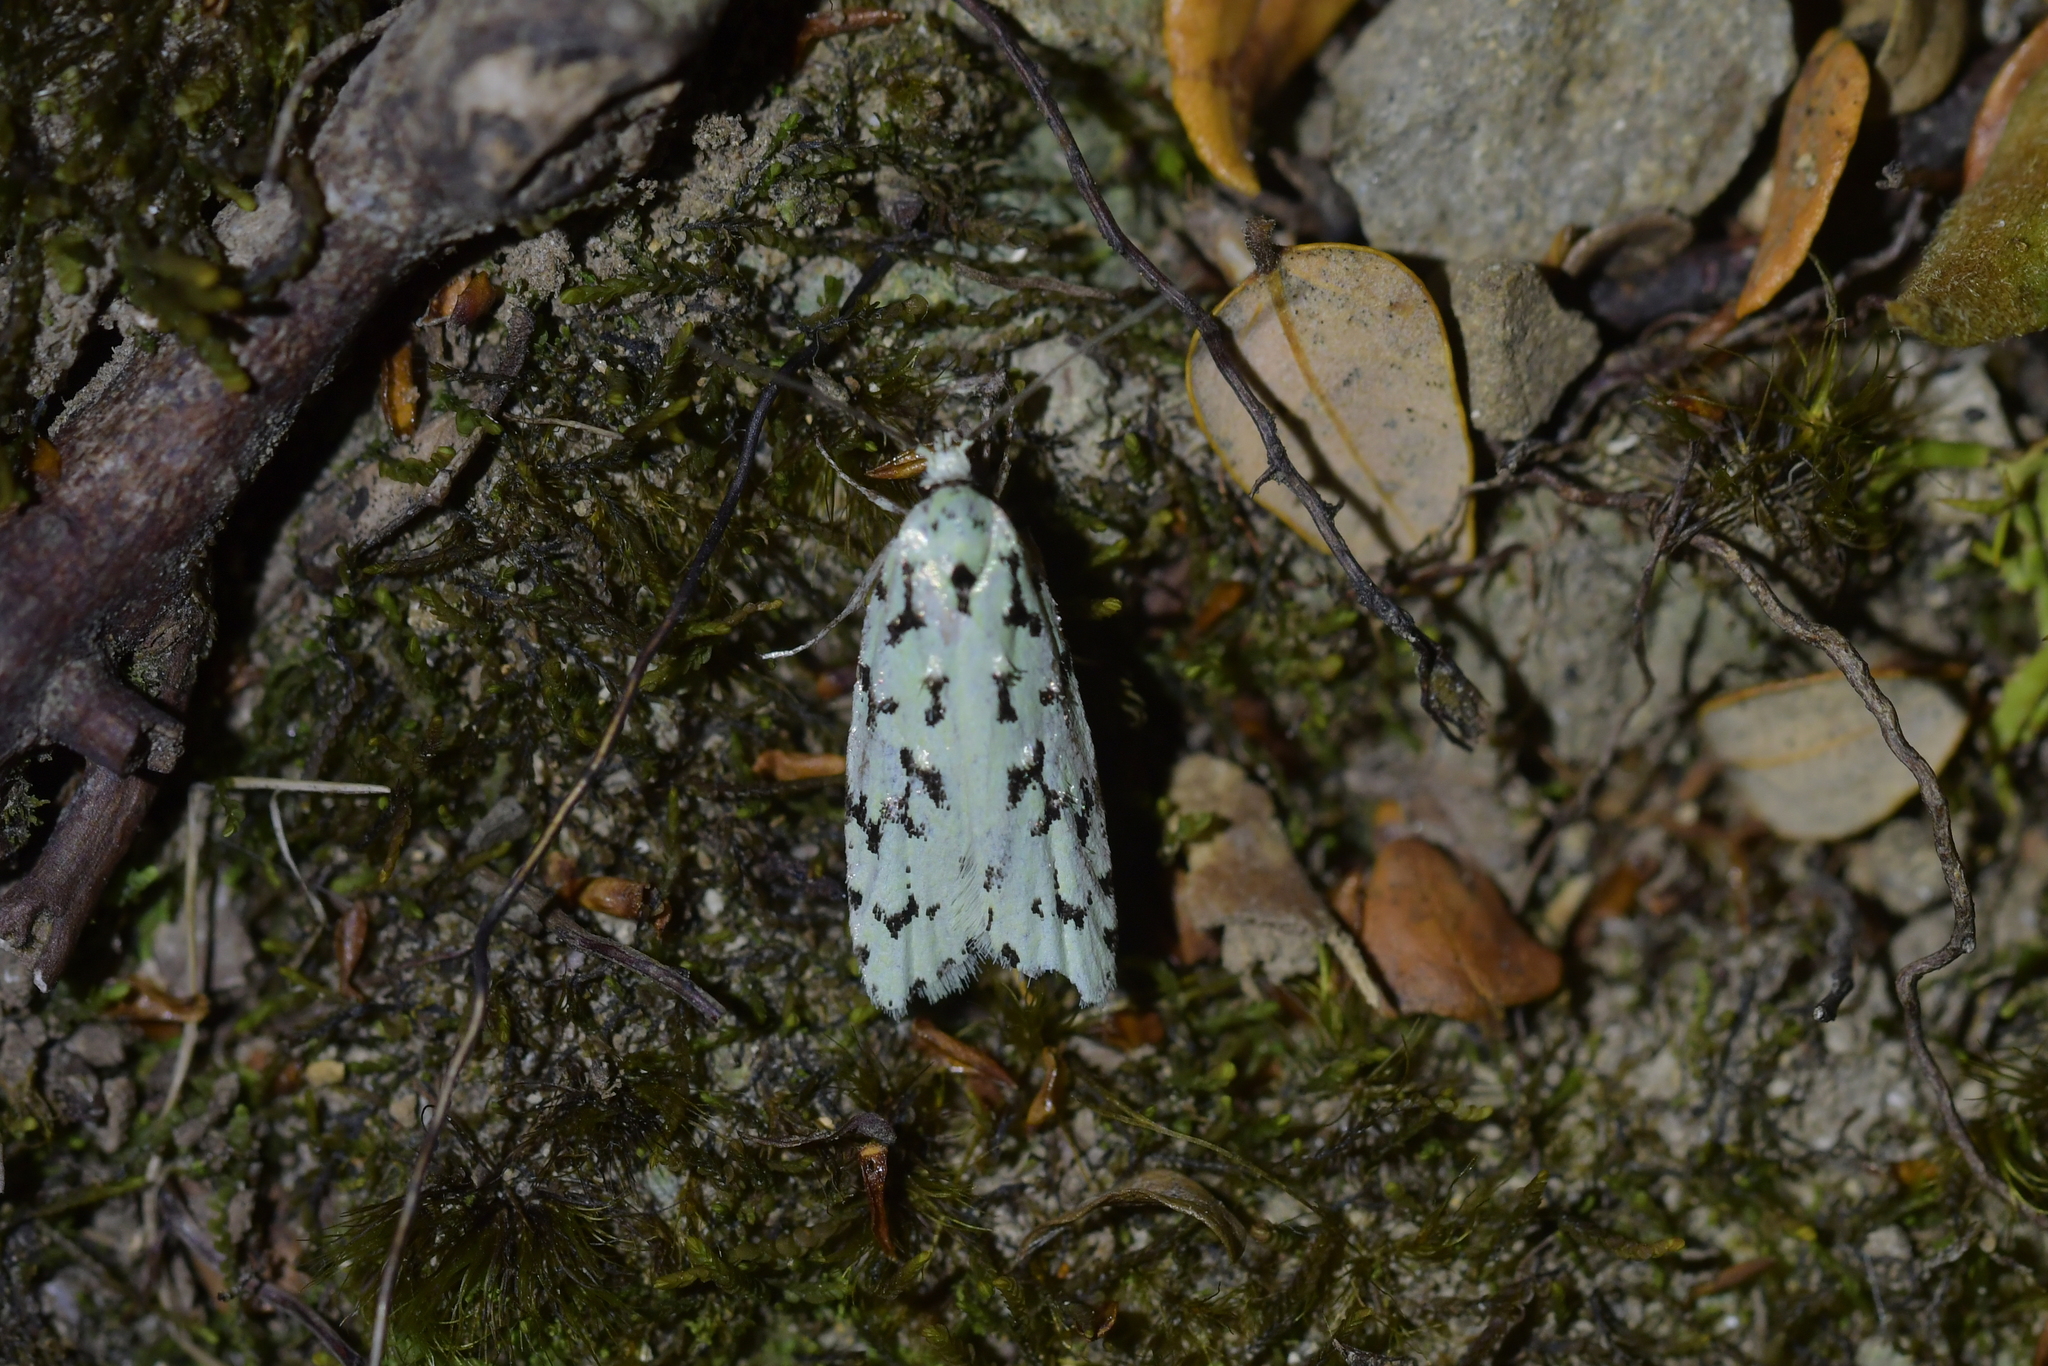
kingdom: Animalia
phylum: Arthropoda
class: Insecta
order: Lepidoptera
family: Oecophoridae
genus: Izatha
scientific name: Izatha huttoni
